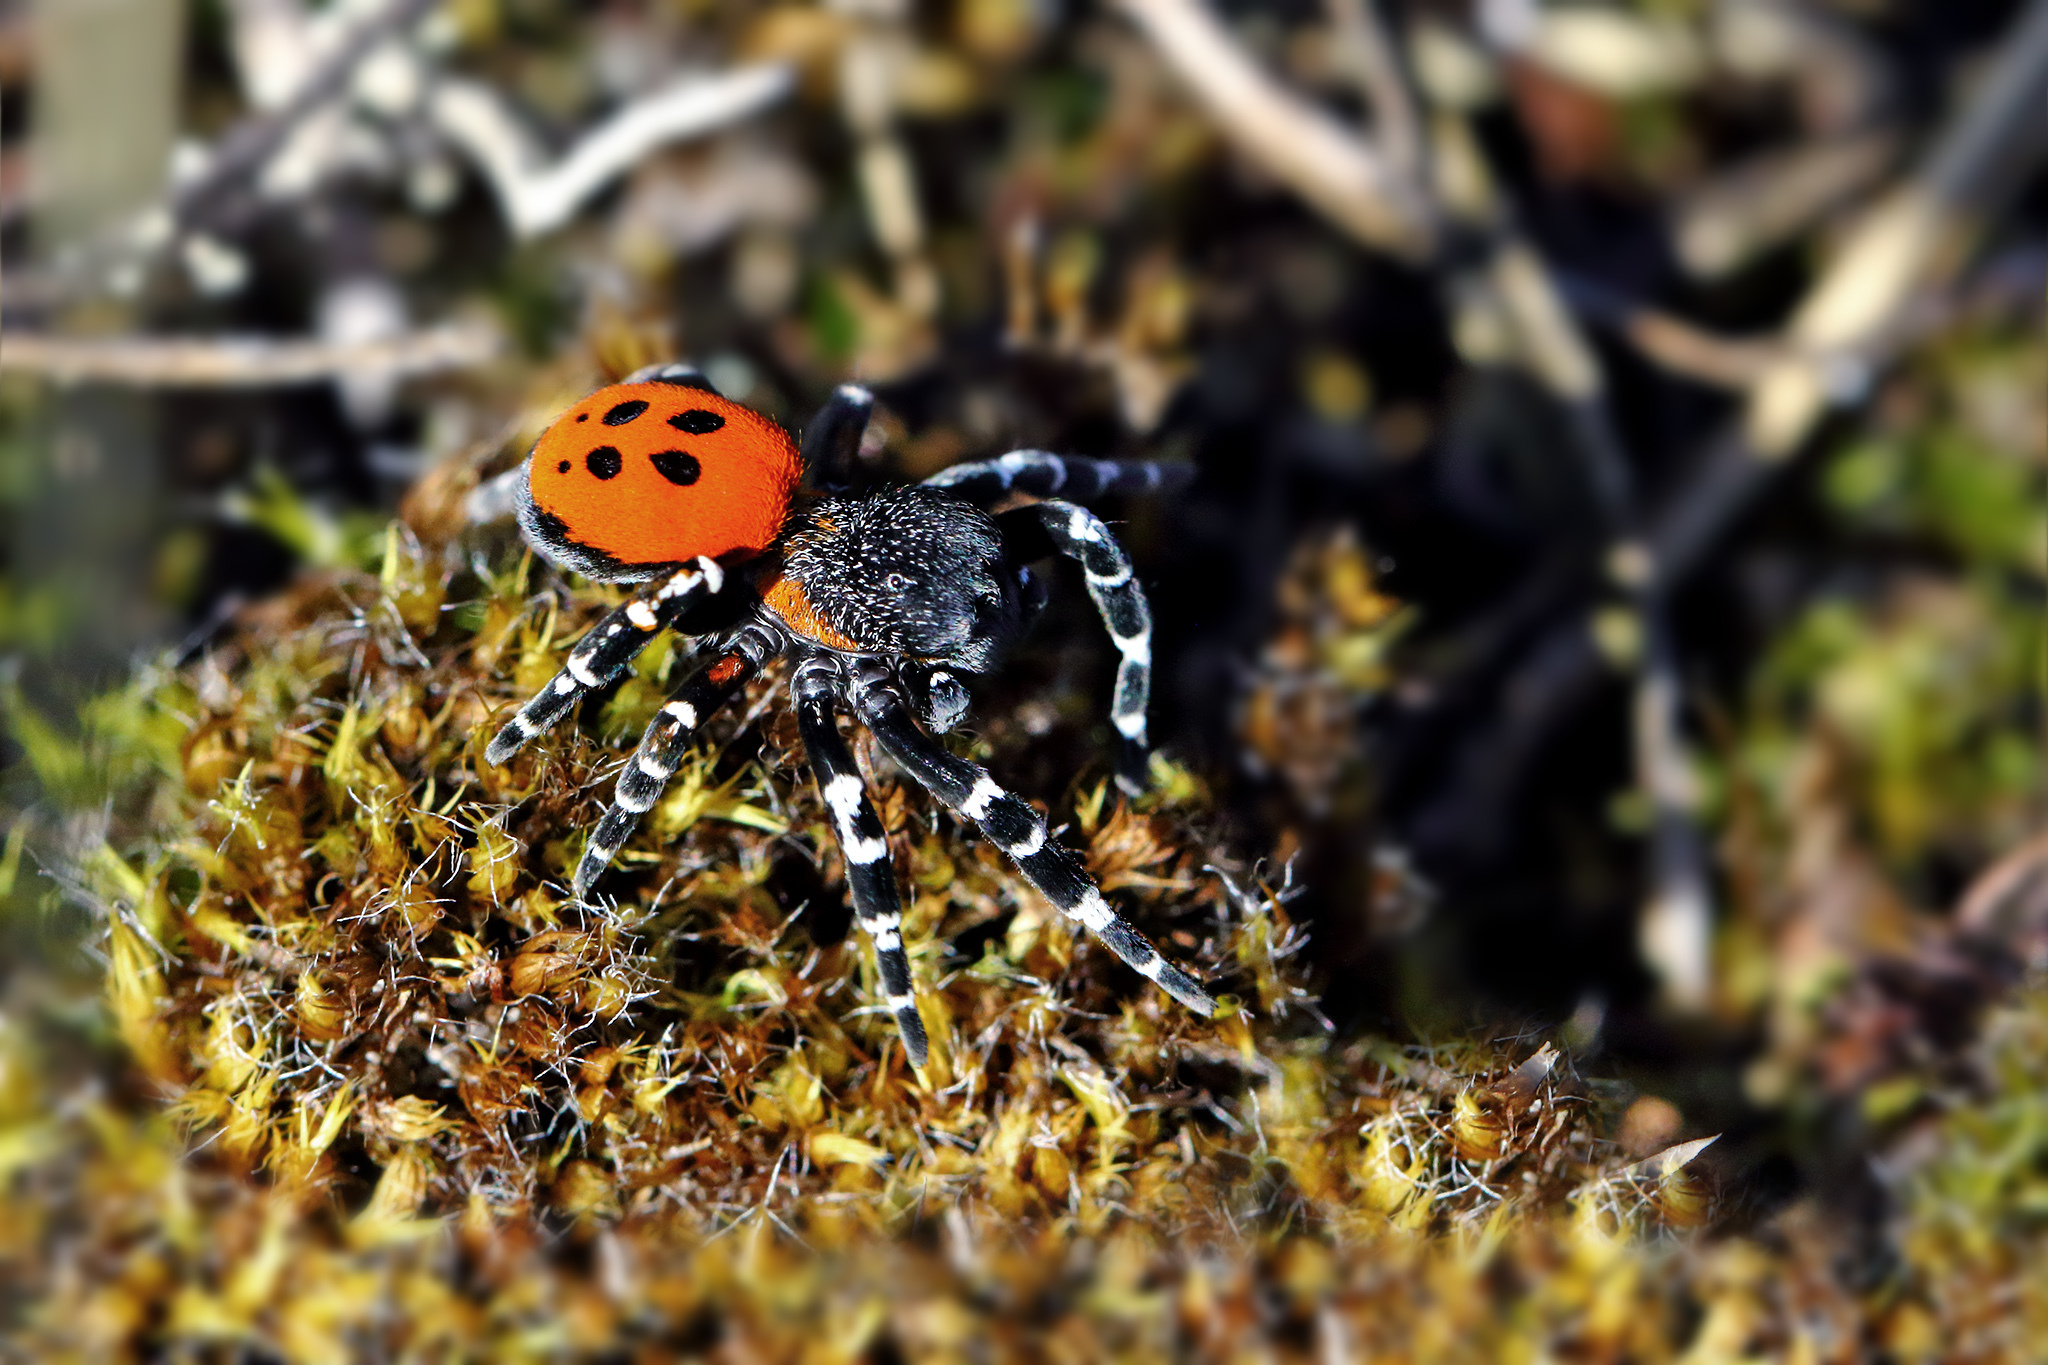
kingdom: Animalia
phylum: Arthropoda
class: Arachnida
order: Araneae
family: Eresidae
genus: Eresus
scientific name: Eresus sandaliatus
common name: Ladybird spider
